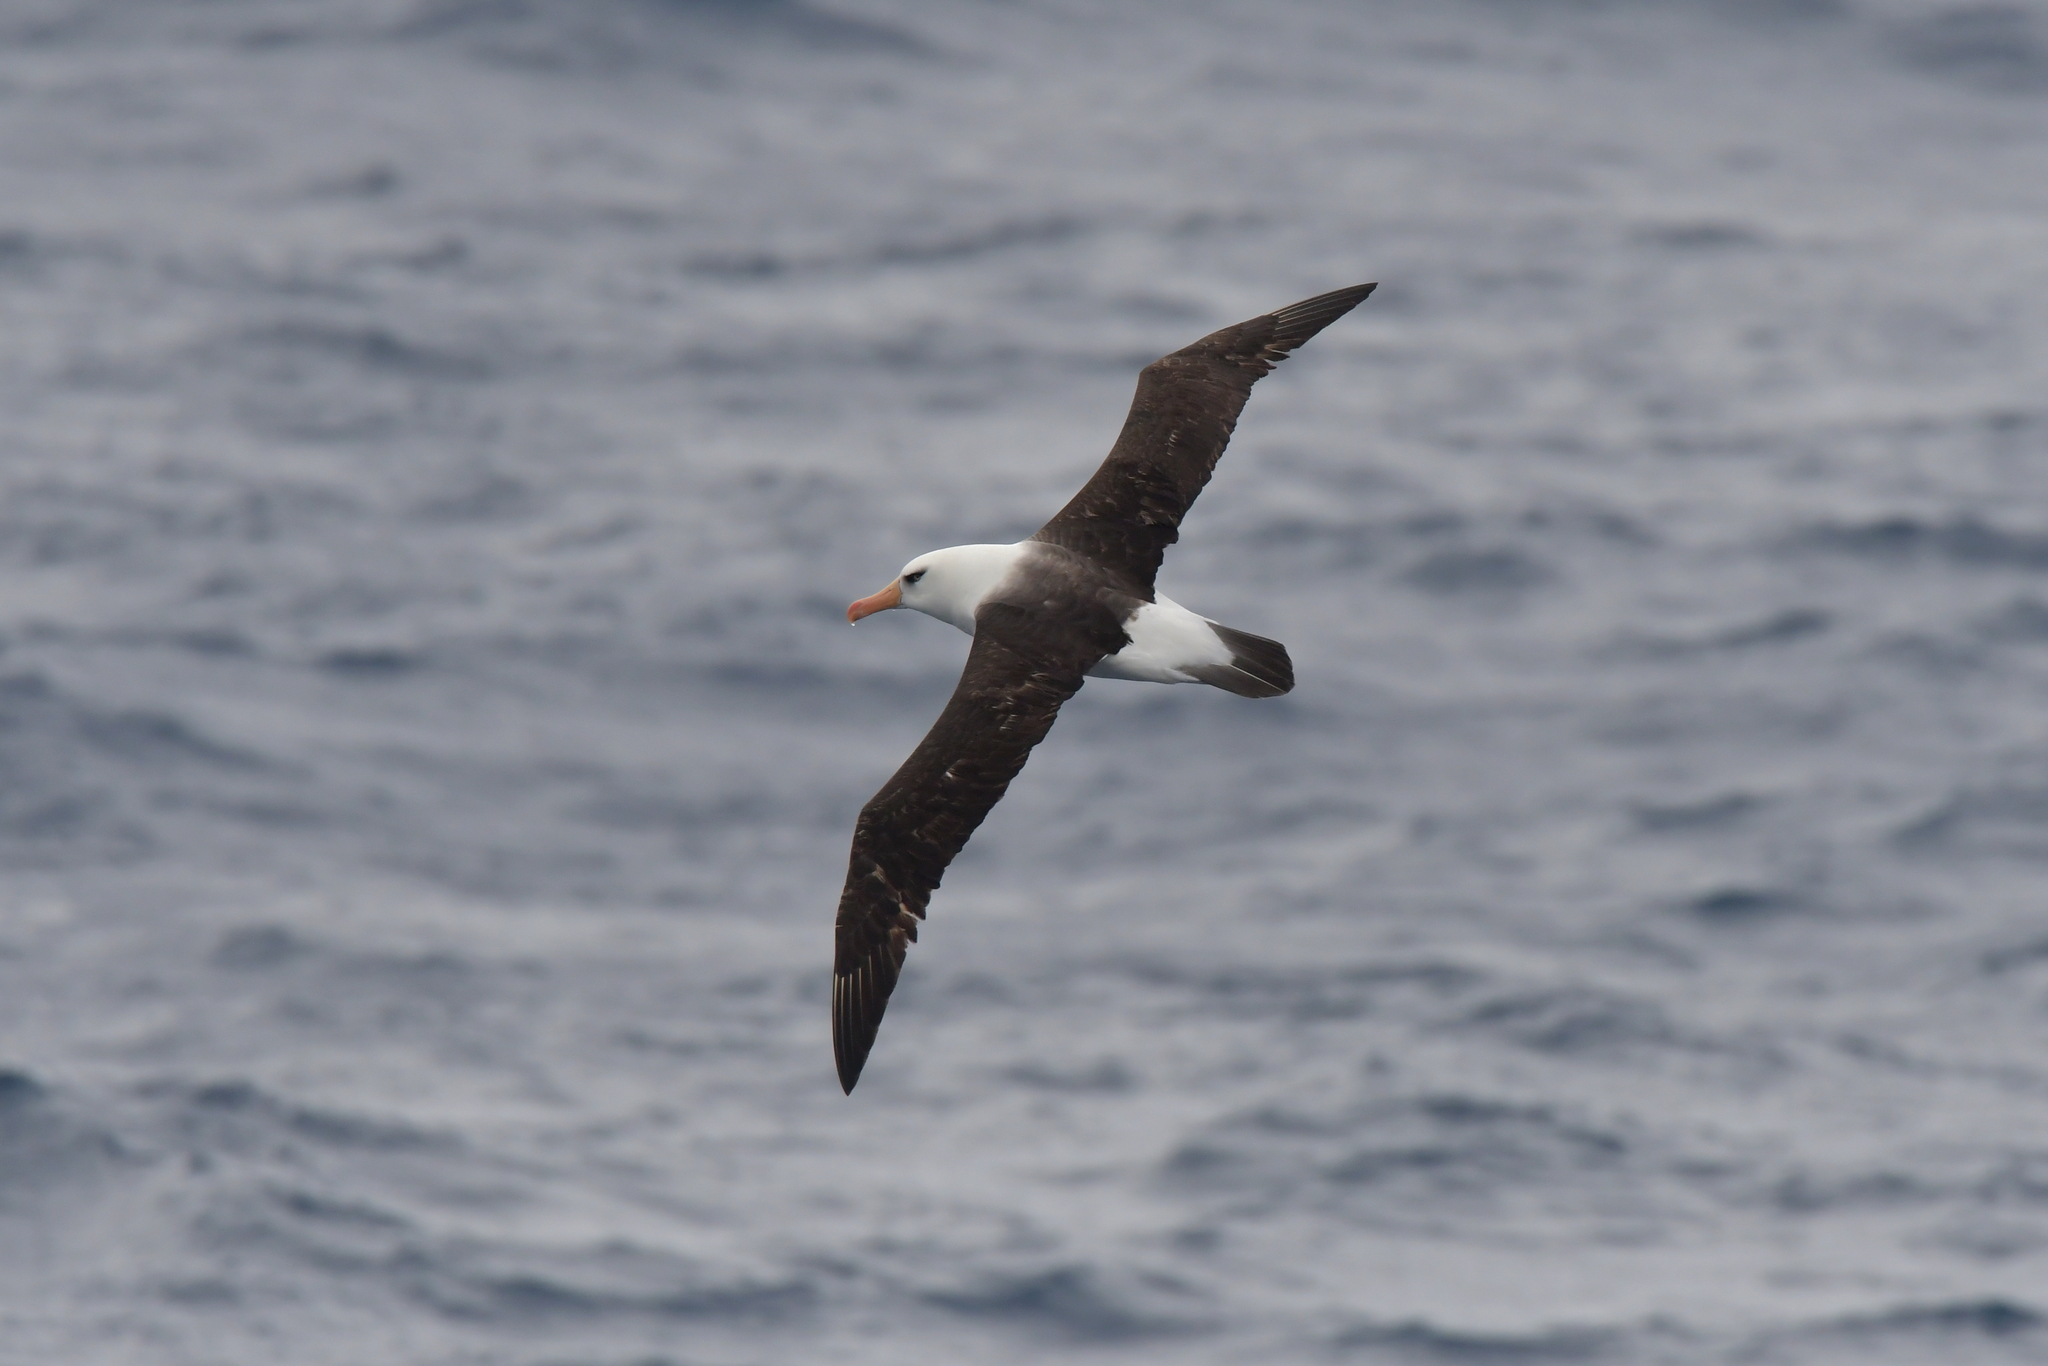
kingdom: Animalia
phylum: Chordata
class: Aves
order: Procellariiformes
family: Diomedeidae
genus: Thalassarche
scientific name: Thalassarche impavida
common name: Campbell albatross
